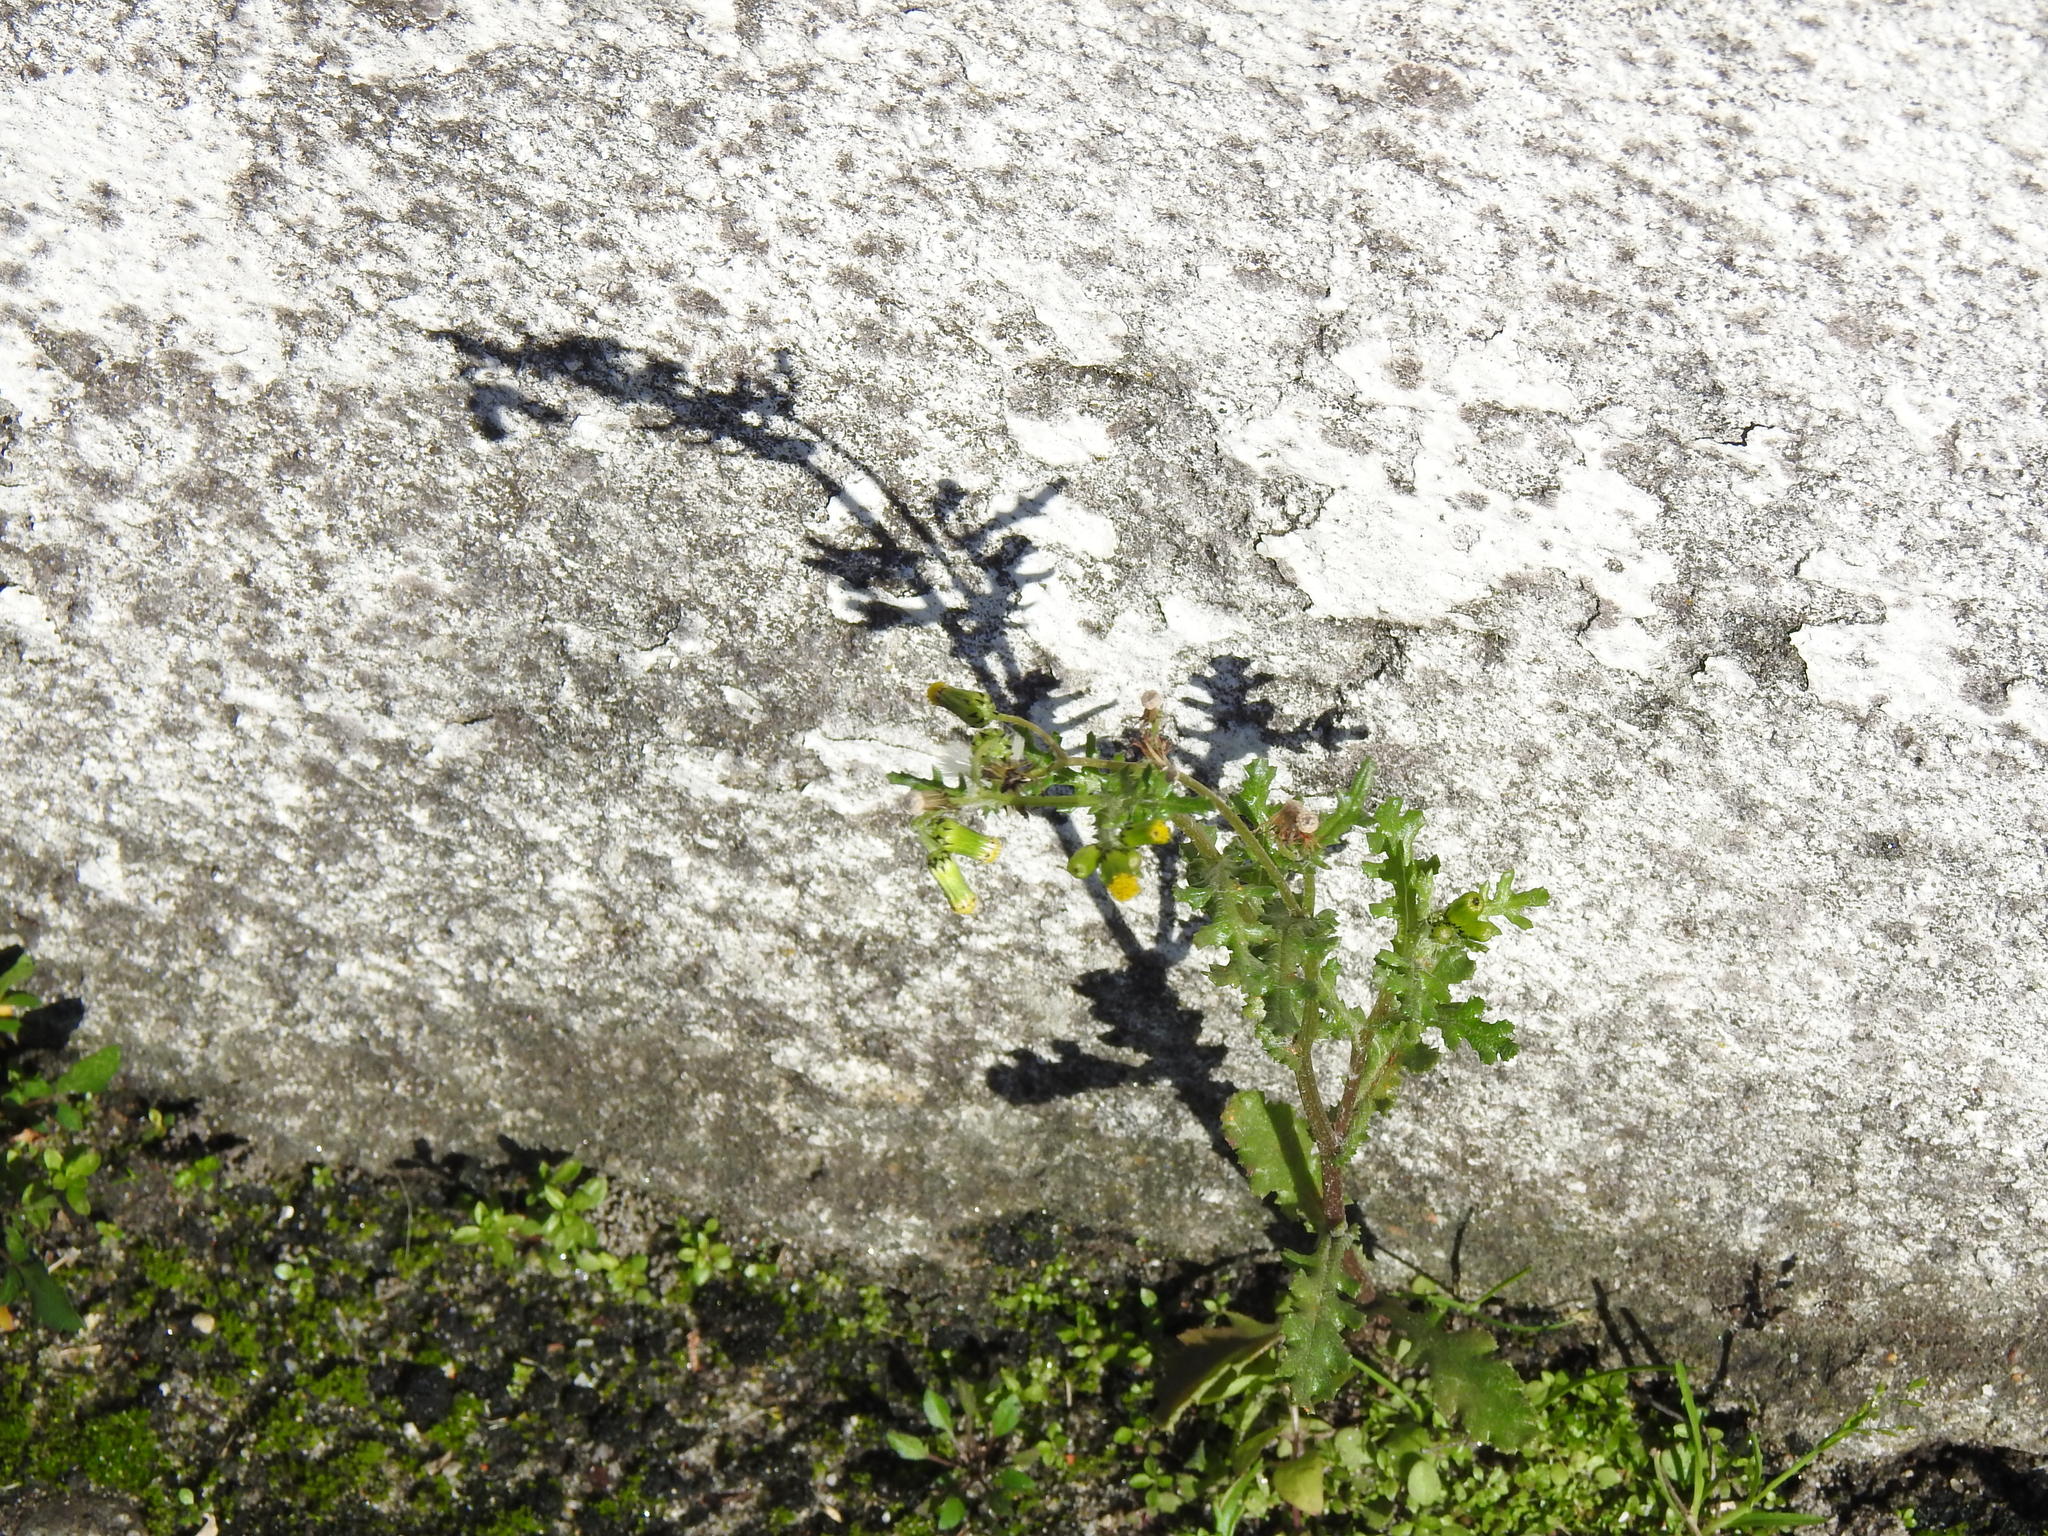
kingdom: Plantae
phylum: Tracheophyta
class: Magnoliopsida
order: Asterales
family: Asteraceae
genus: Senecio
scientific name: Senecio vulgaris
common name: Old-man-in-the-spring
